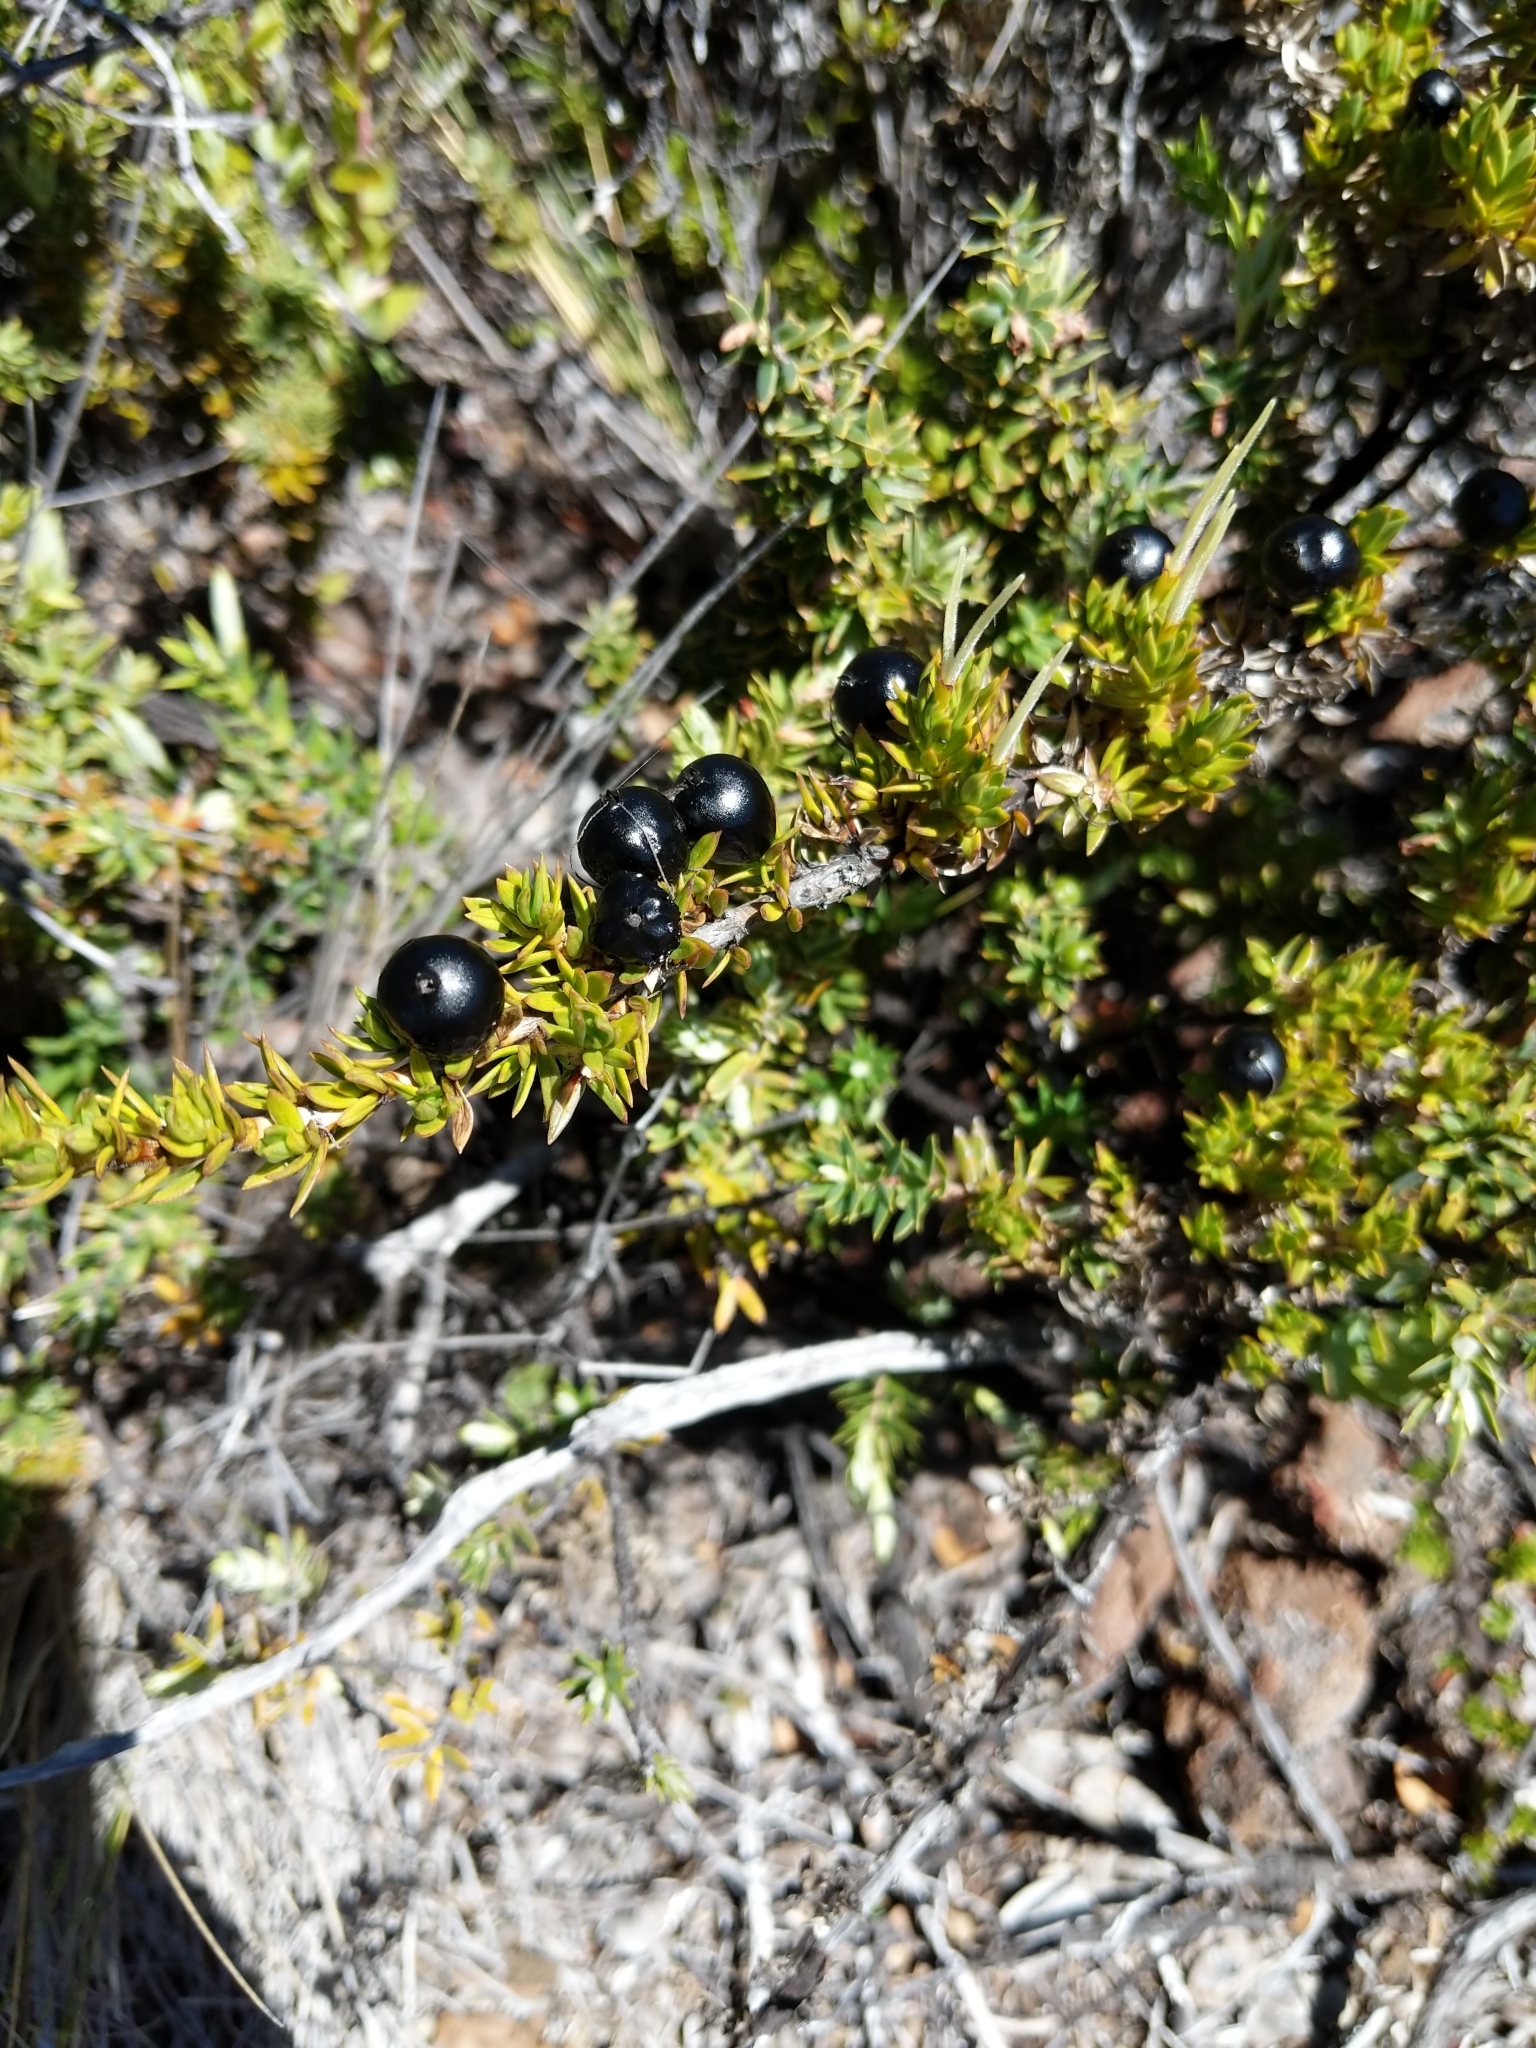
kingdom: Plantae
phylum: Tracheophyta
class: Magnoliopsida
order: Gentianales
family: Rubiaceae
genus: Coprosma
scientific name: Coprosma ernodeoides
